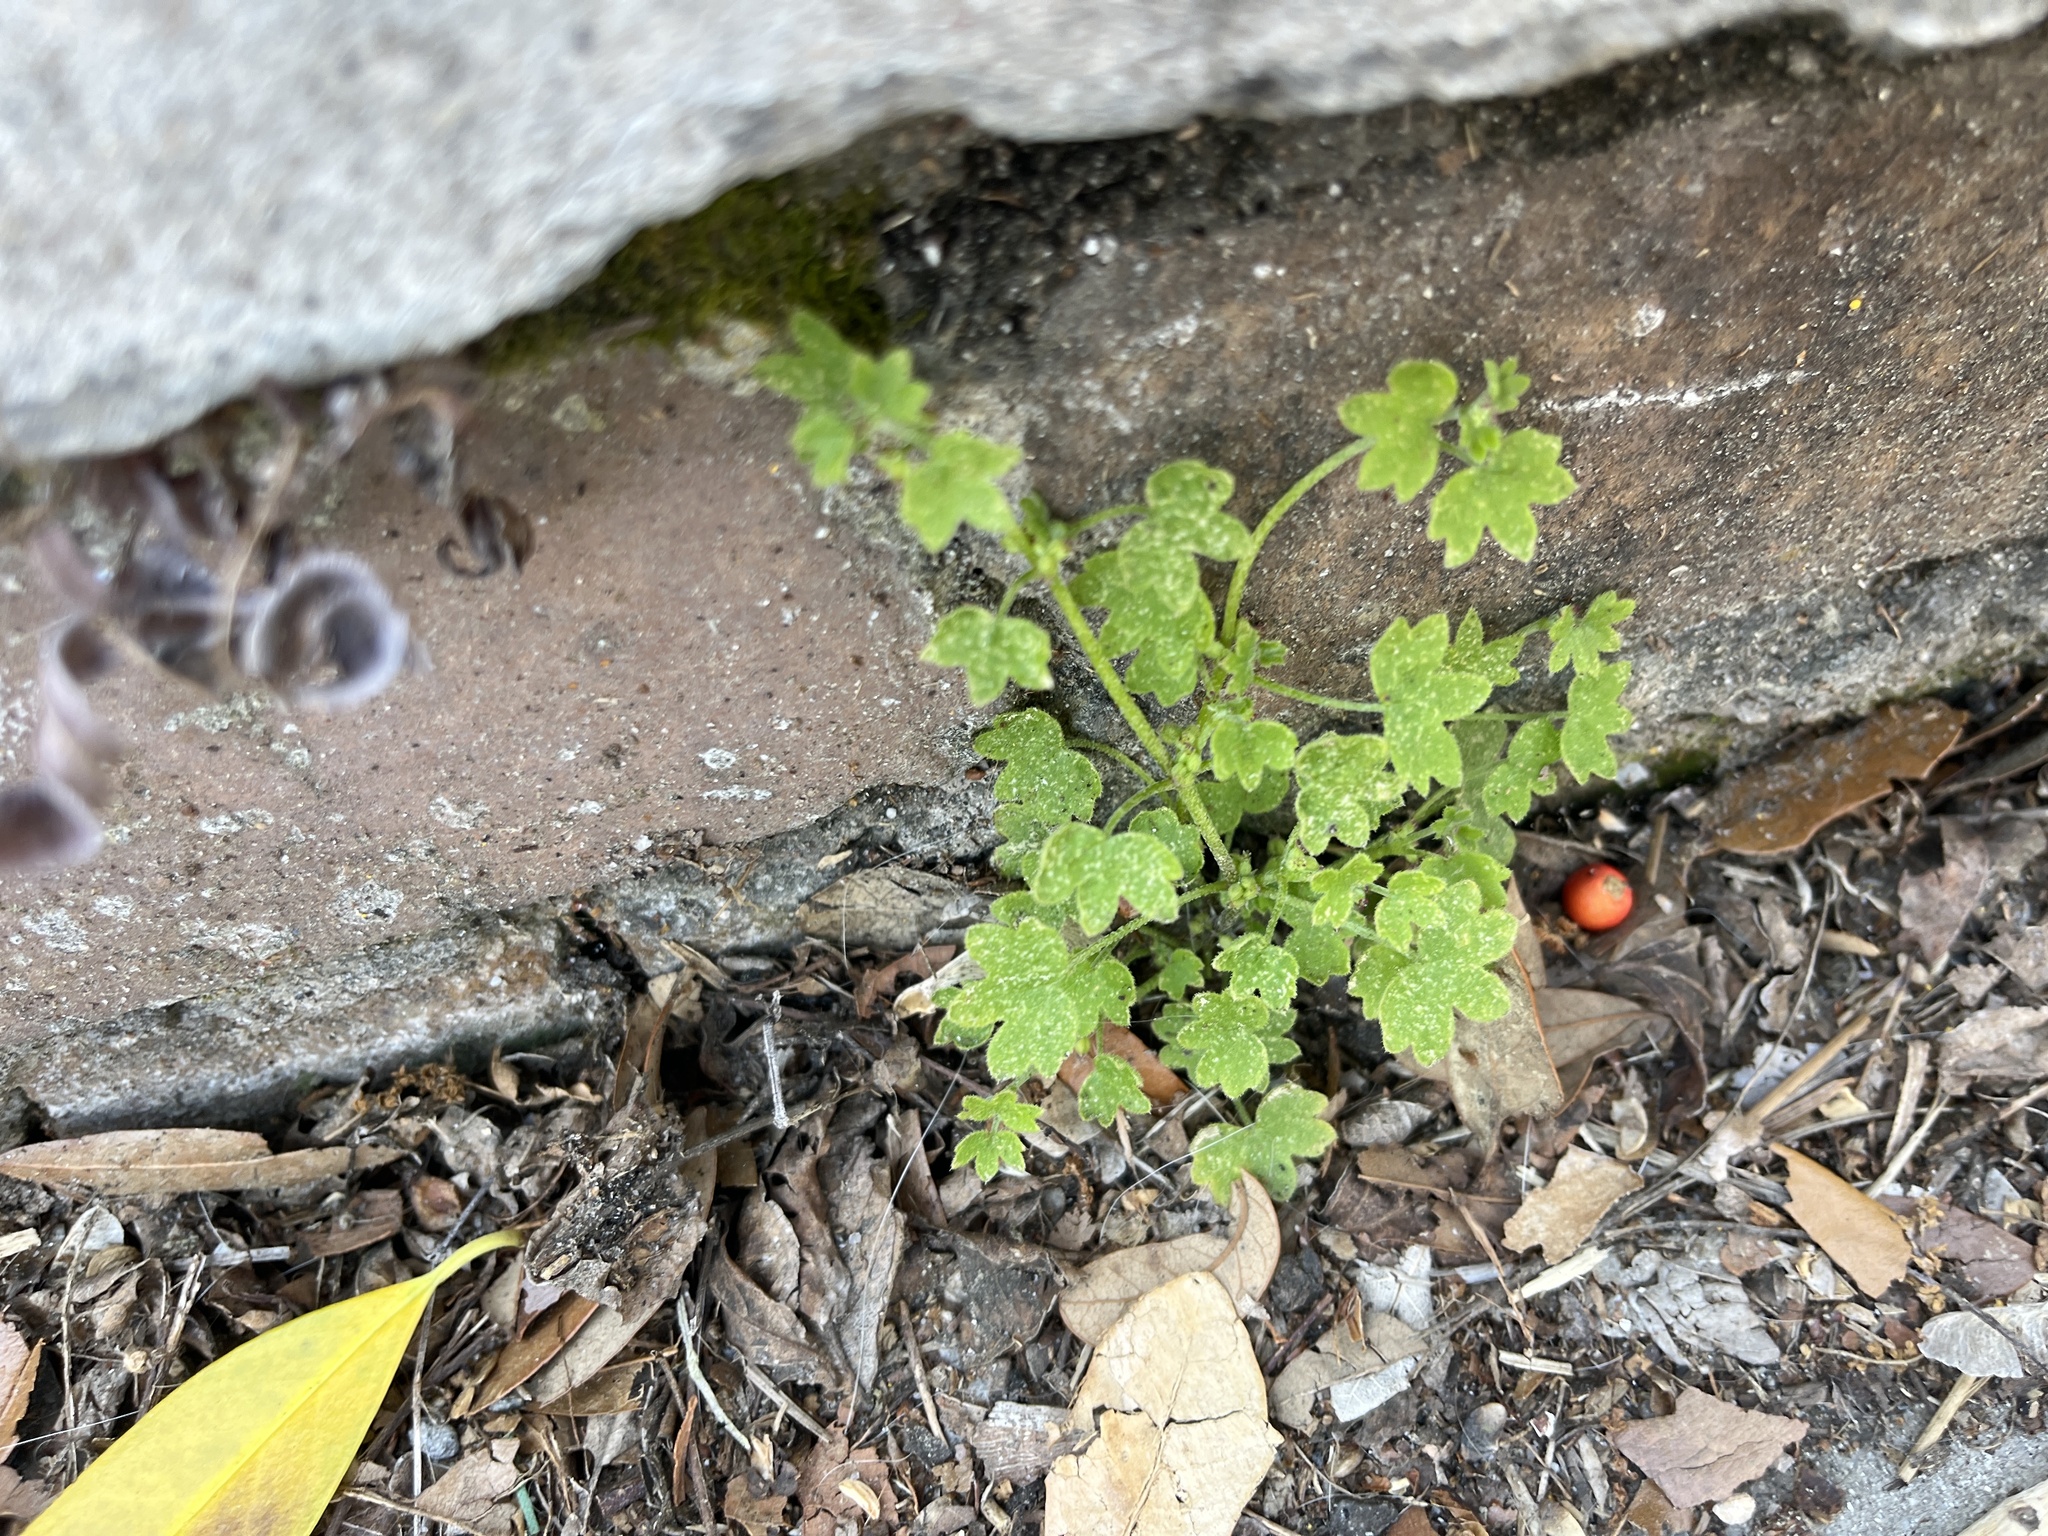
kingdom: Plantae
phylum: Tracheophyta
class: Magnoliopsida
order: Apiales
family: Apiaceae
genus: Bowlesia
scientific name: Bowlesia incana
